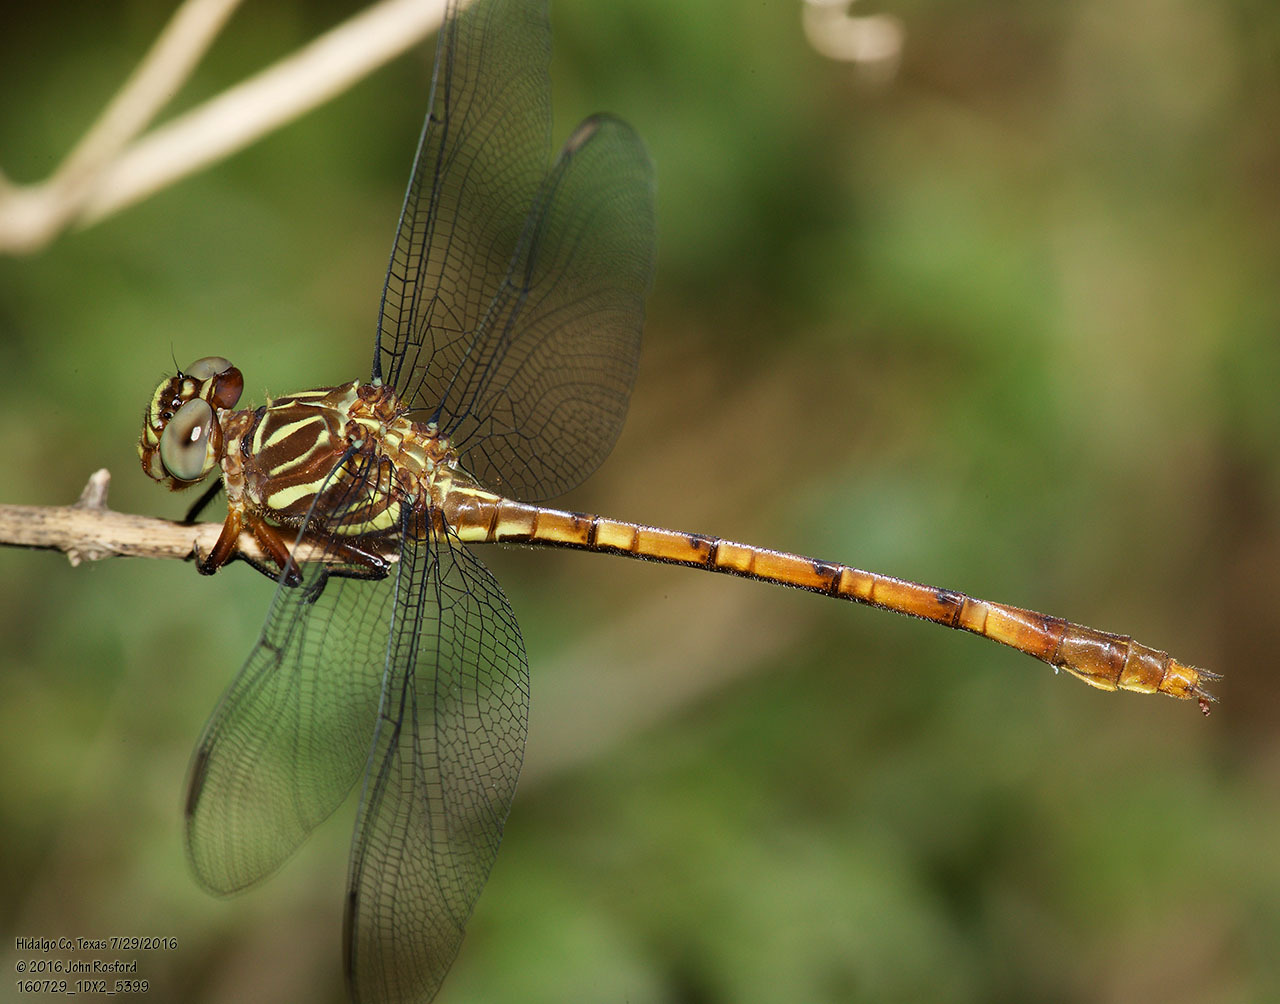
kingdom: Animalia
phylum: Arthropoda
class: Insecta
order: Odonata
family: Gomphidae
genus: Aphylla
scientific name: Aphylla angustifolia
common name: Broad-striped forceptail
